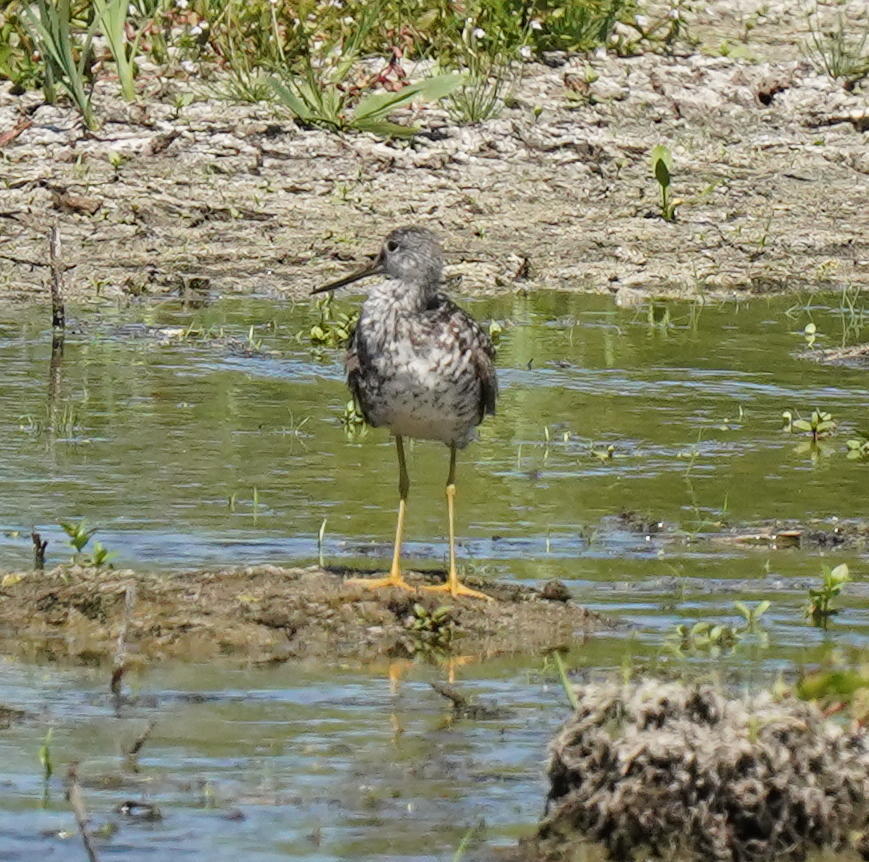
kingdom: Animalia
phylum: Chordata
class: Aves
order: Charadriiformes
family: Scolopacidae
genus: Tringa
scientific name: Tringa melanoleuca
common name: Greater yellowlegs
